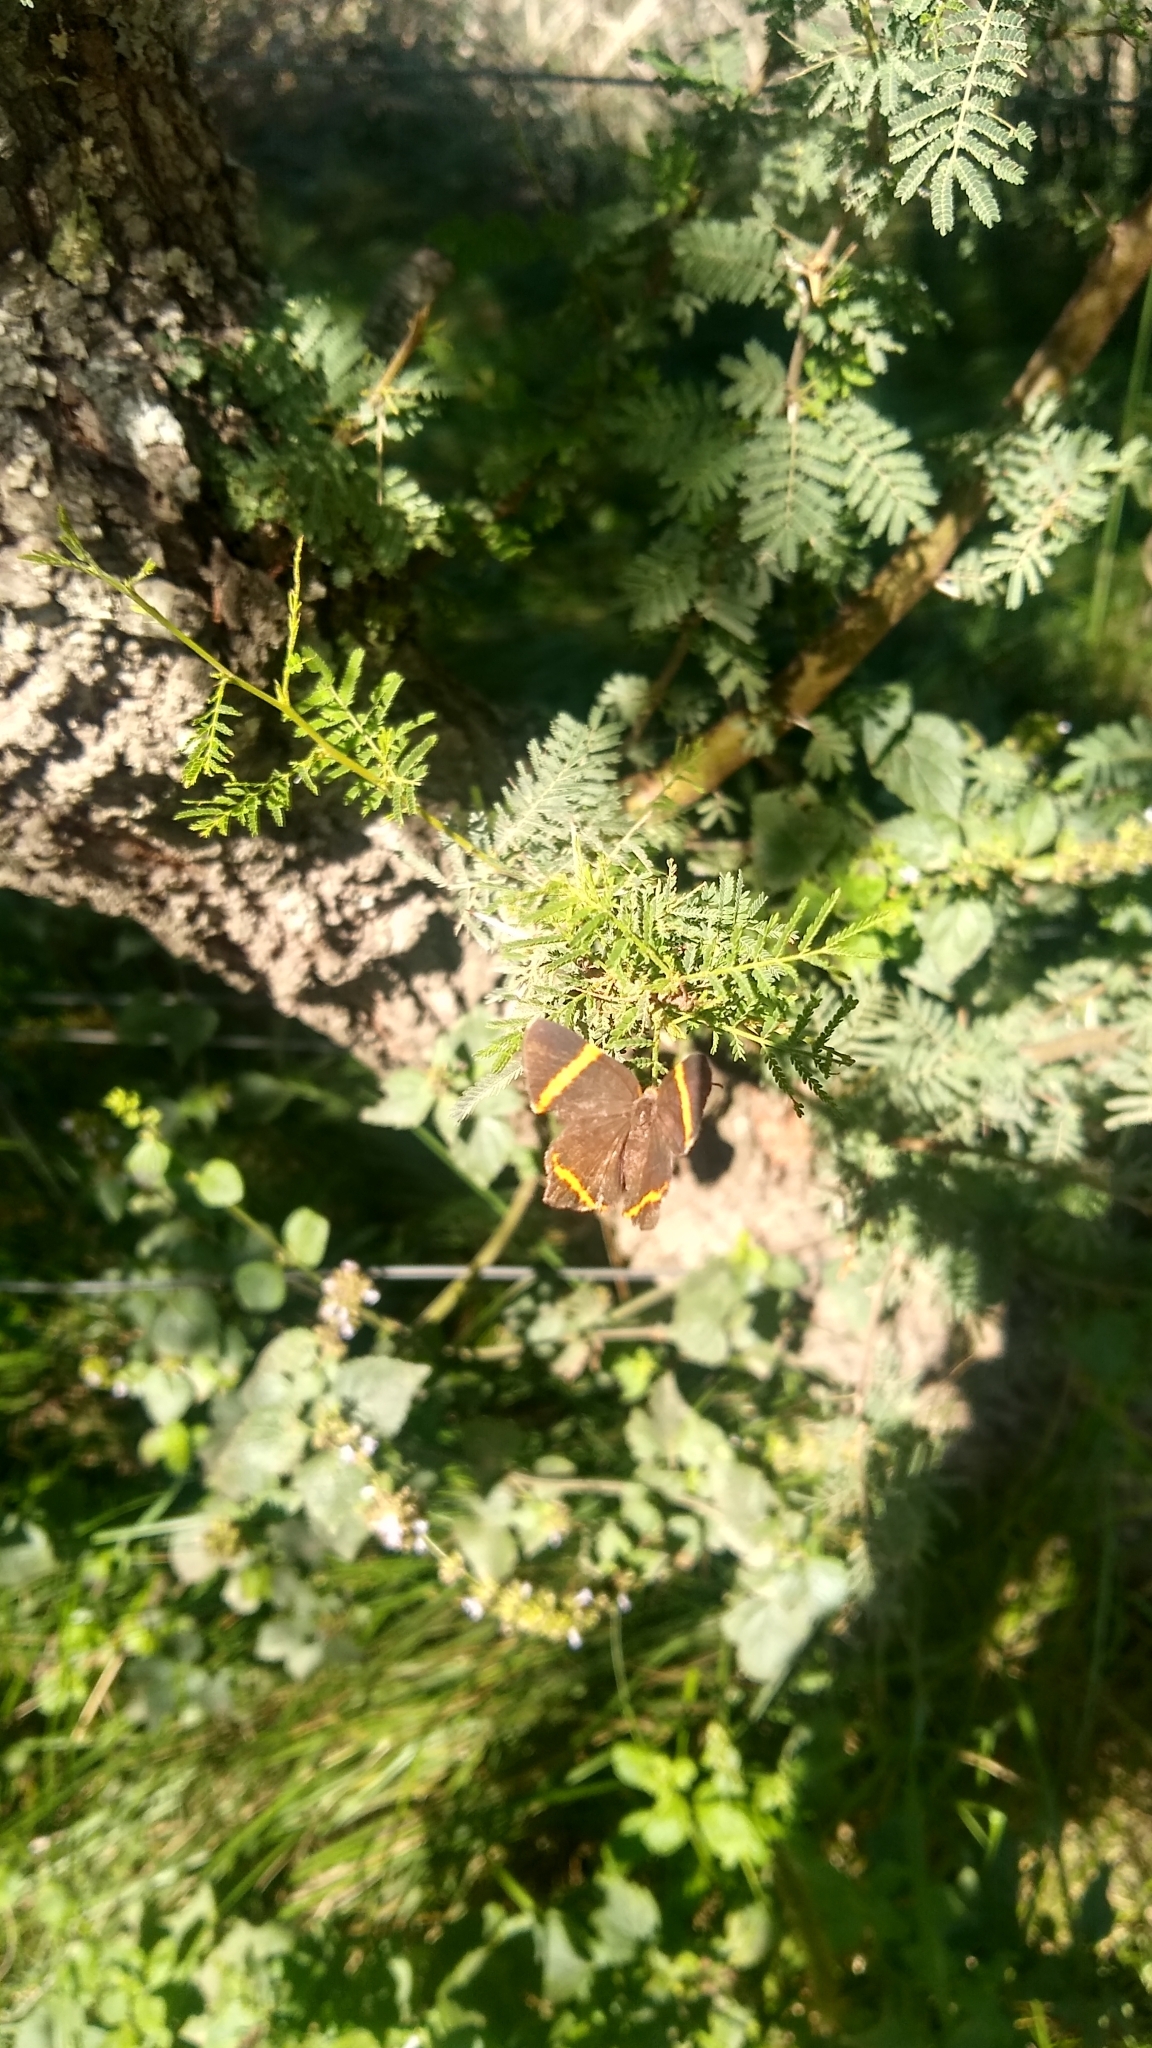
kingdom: Animalia
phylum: Arthropoda
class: Insecta
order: Lepidoptera
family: Riodinidae
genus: Riodina
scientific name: Riodina lysippoides
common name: Little dancer metalmark
